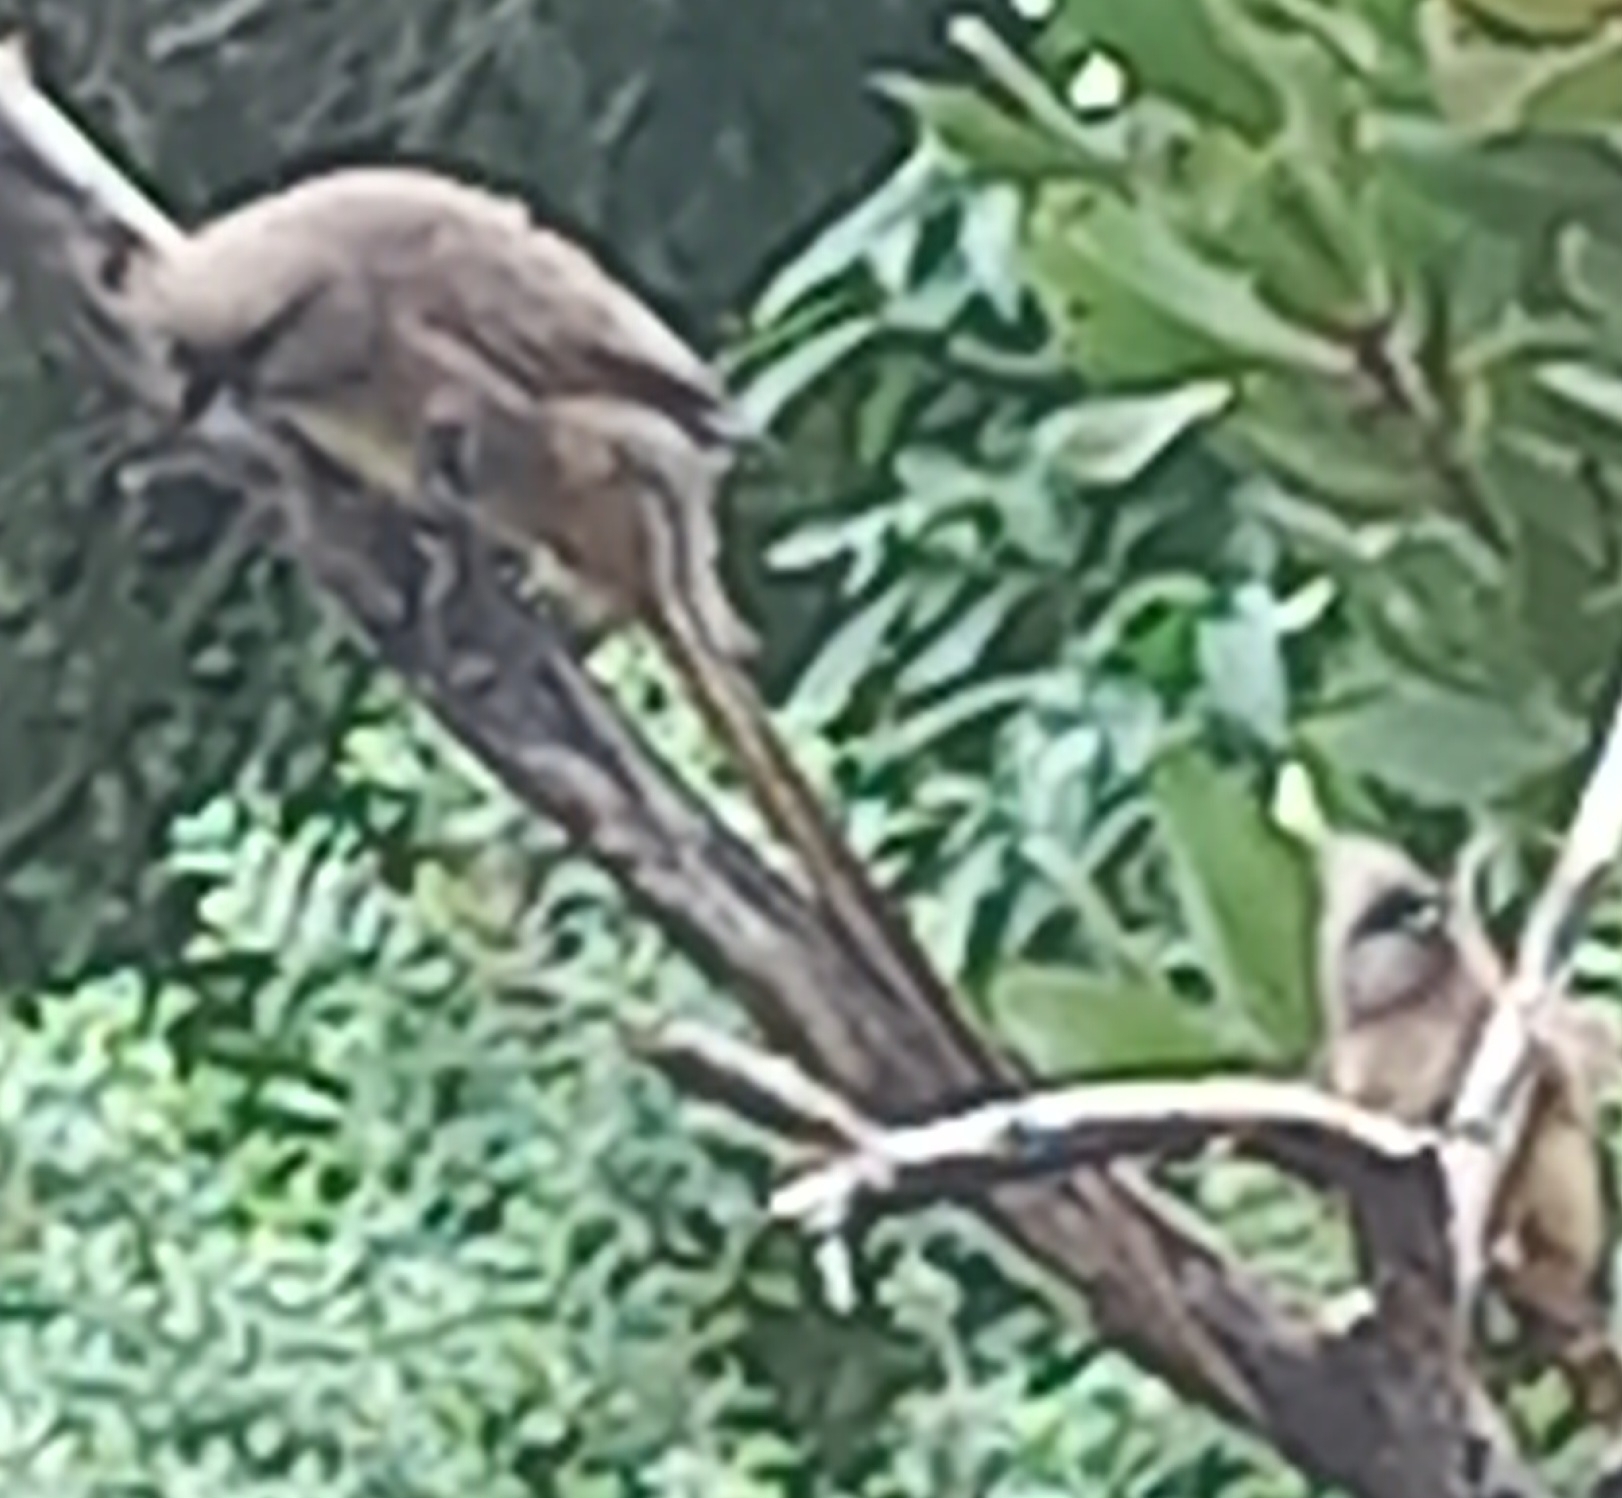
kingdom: Animalia
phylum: Chordata
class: Aves
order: Coliiformes
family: Coliidae
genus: Colius
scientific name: Colius striatus
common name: Speckled mousebird
